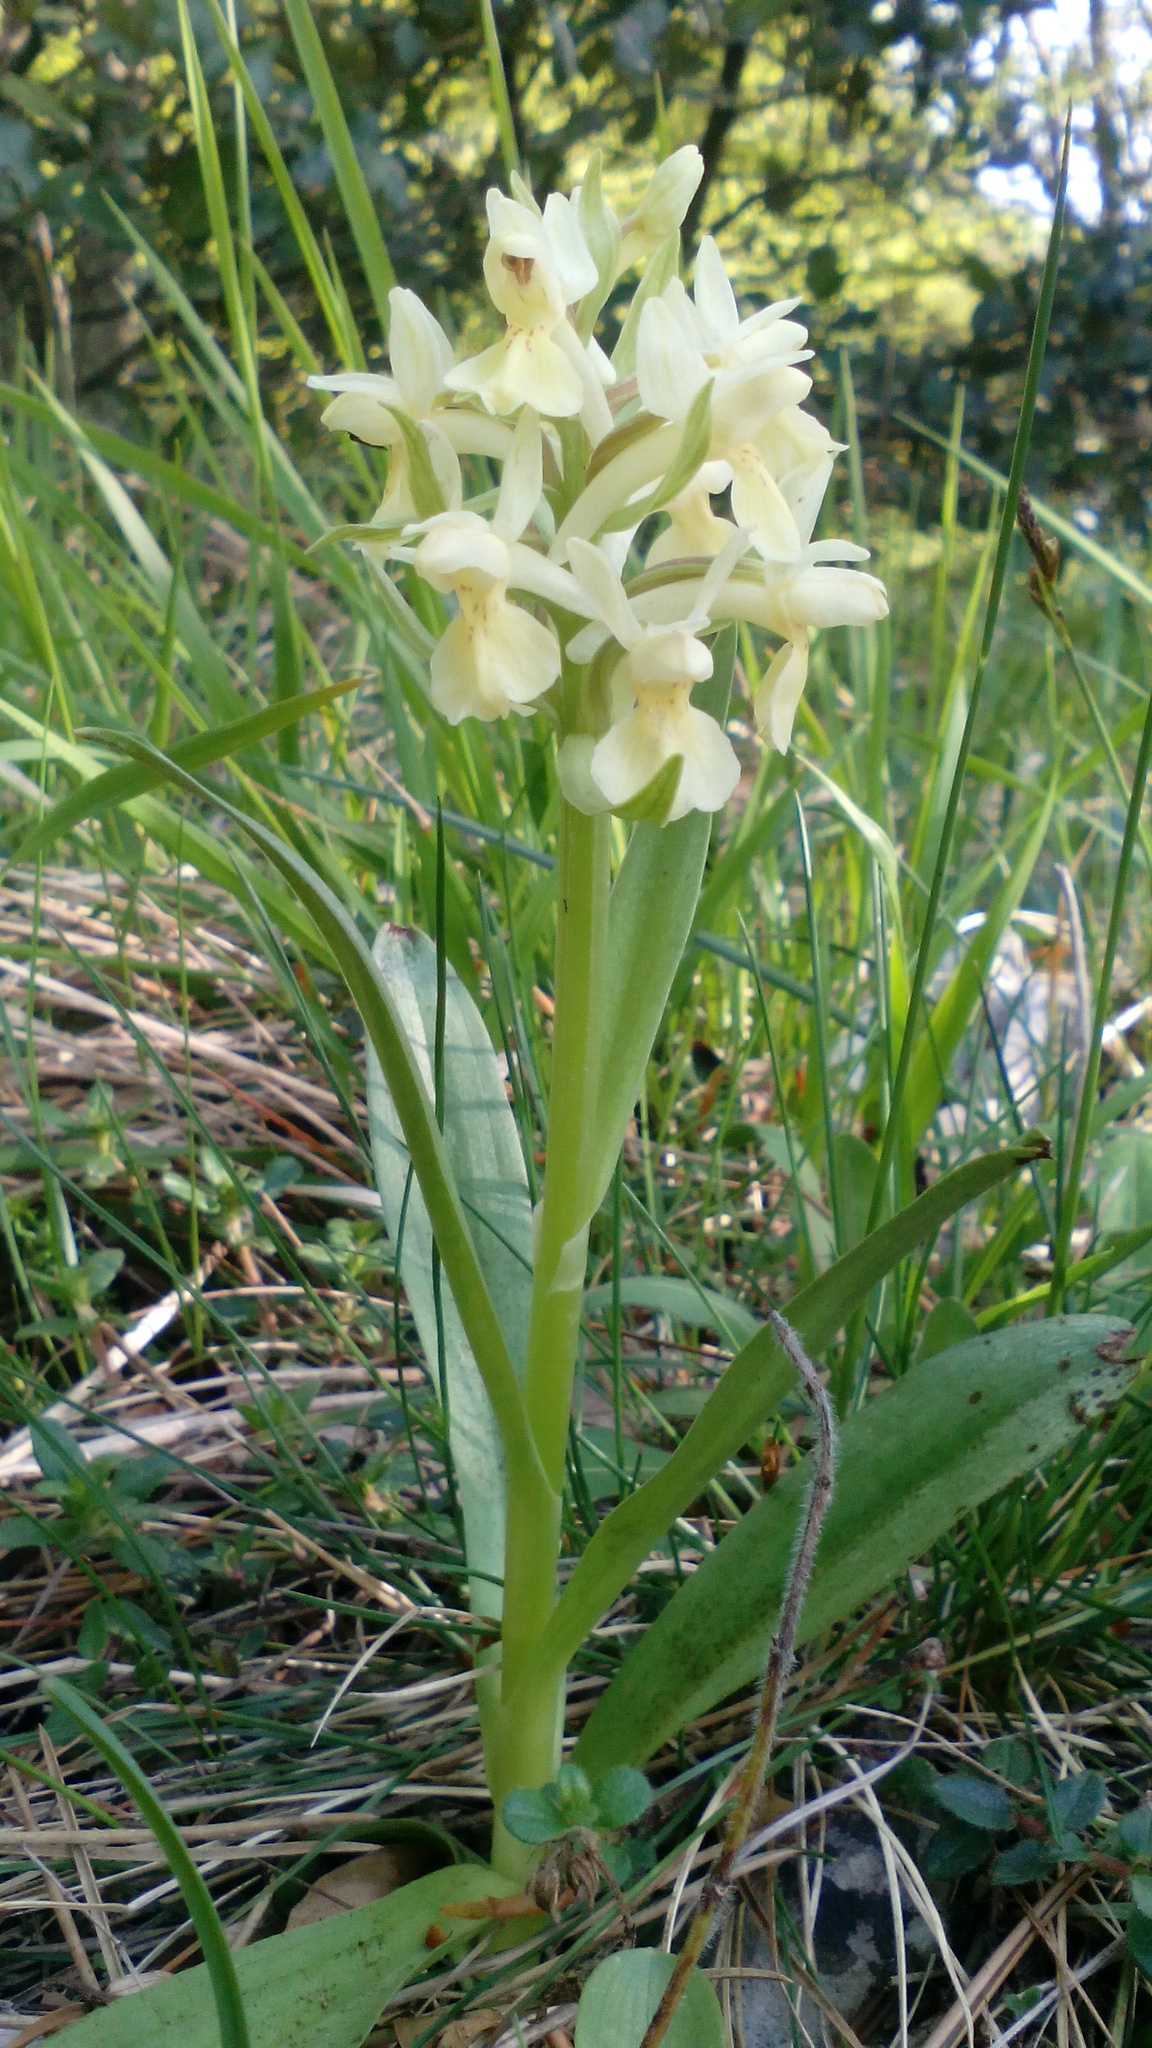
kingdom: Plantae
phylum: Tracheophyta
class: Liliopsida
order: Asparagales
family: Orchidaceae
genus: Dactylorhiza
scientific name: Dactylorhiza sambucina
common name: Elder-flowered orchid
